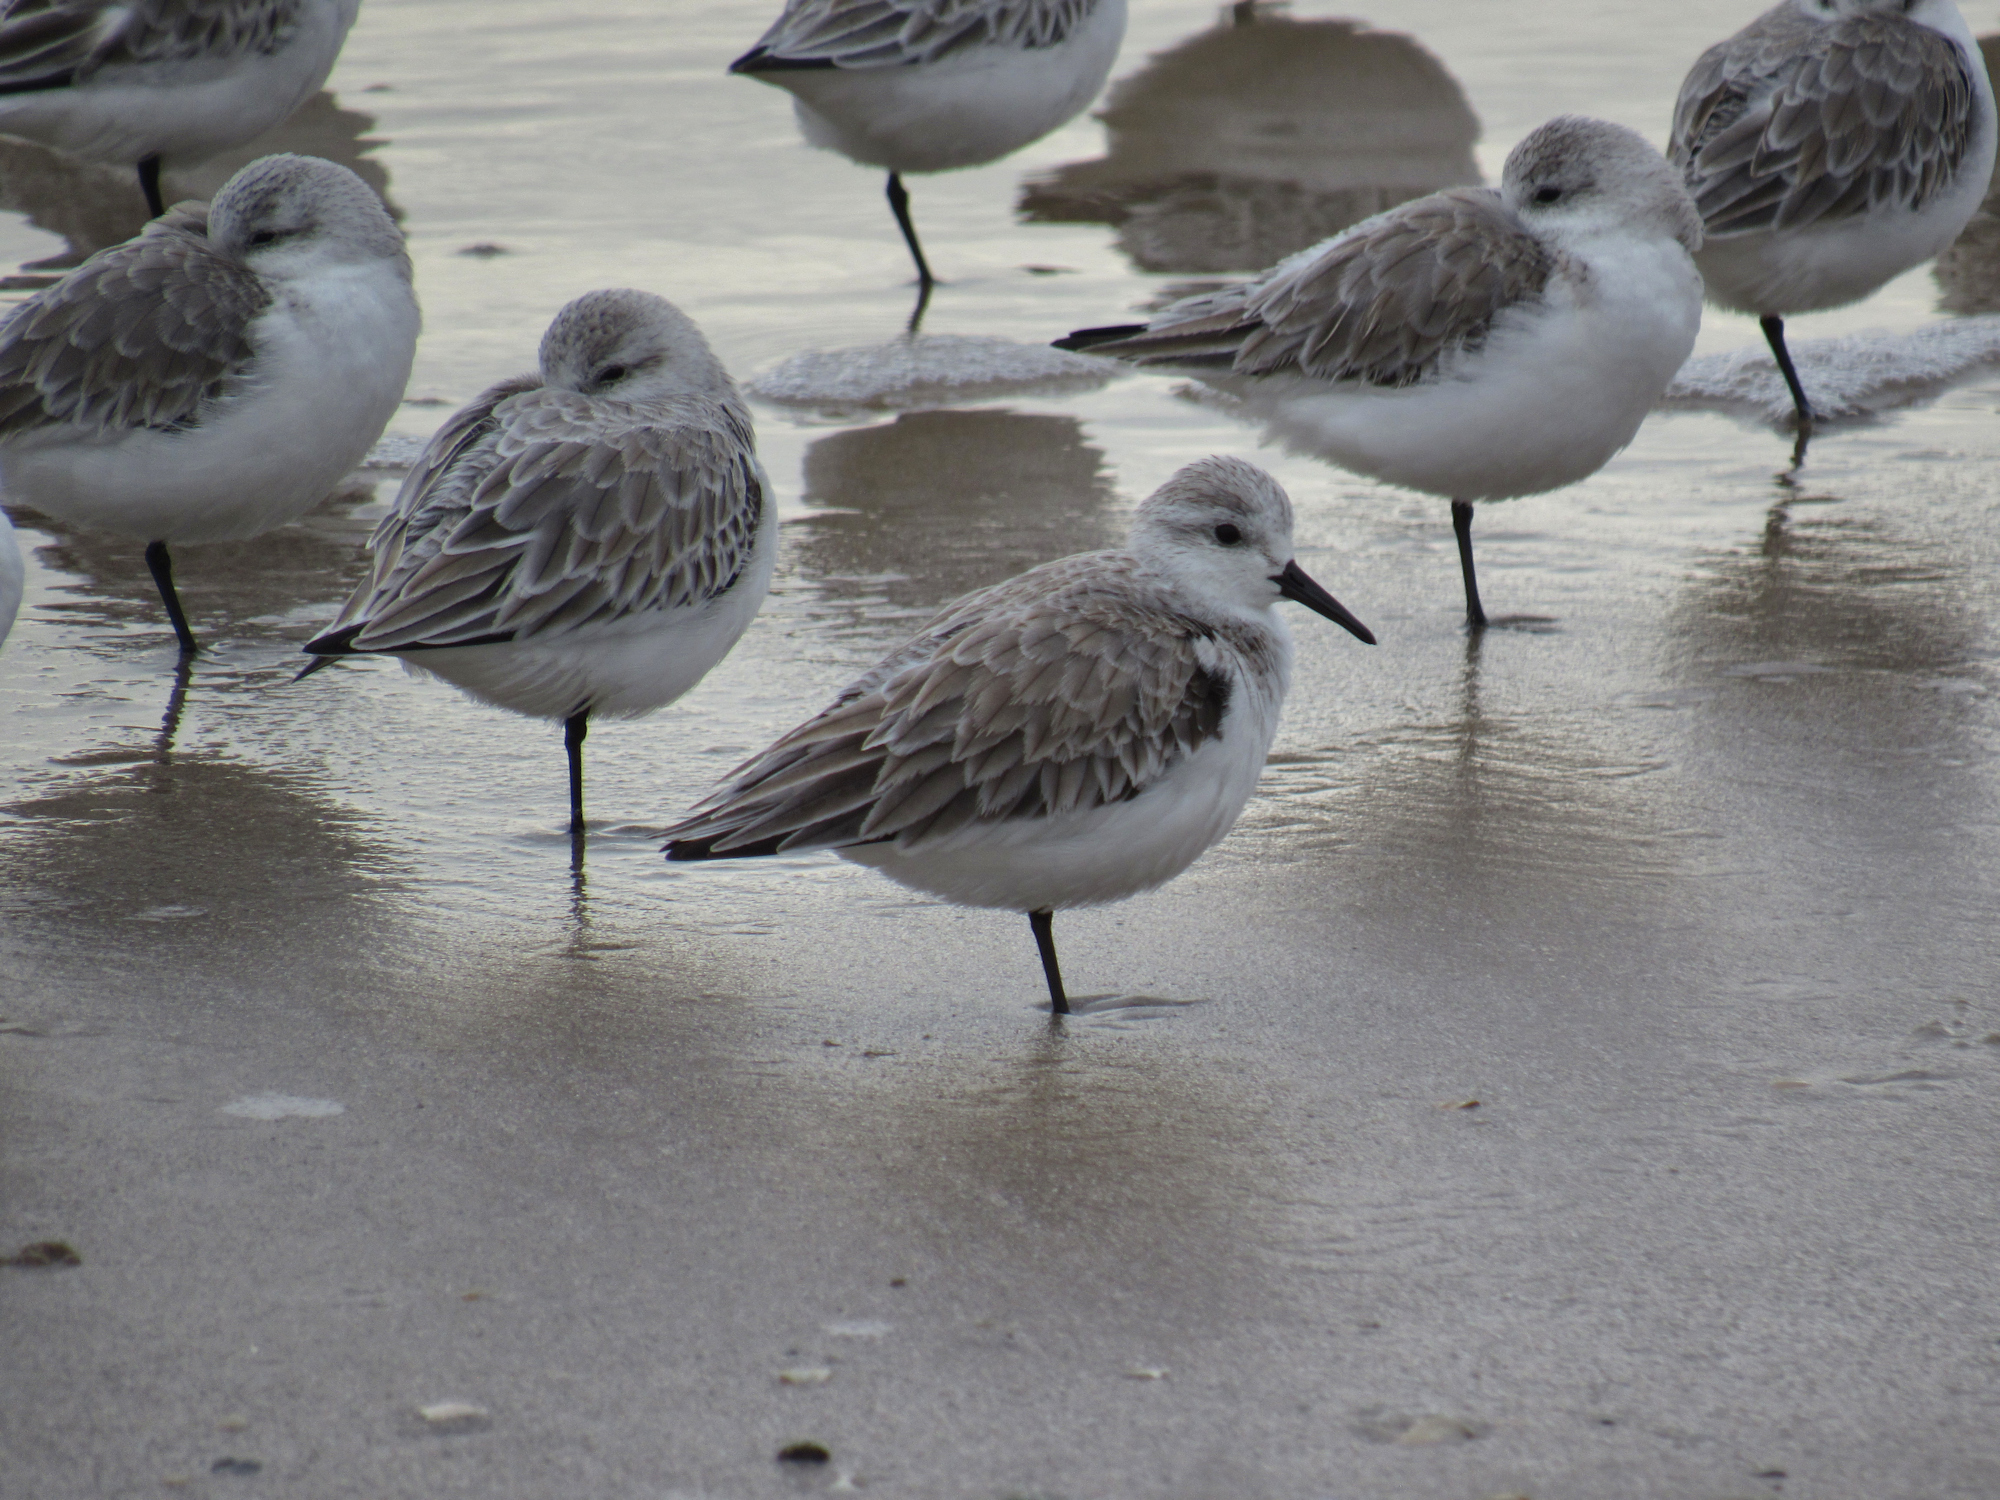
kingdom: Animalia
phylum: Chordata
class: Aves
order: Charadriiformes
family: Scolopacidae
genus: Calidris
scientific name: Calidris alba
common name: Sanderling
